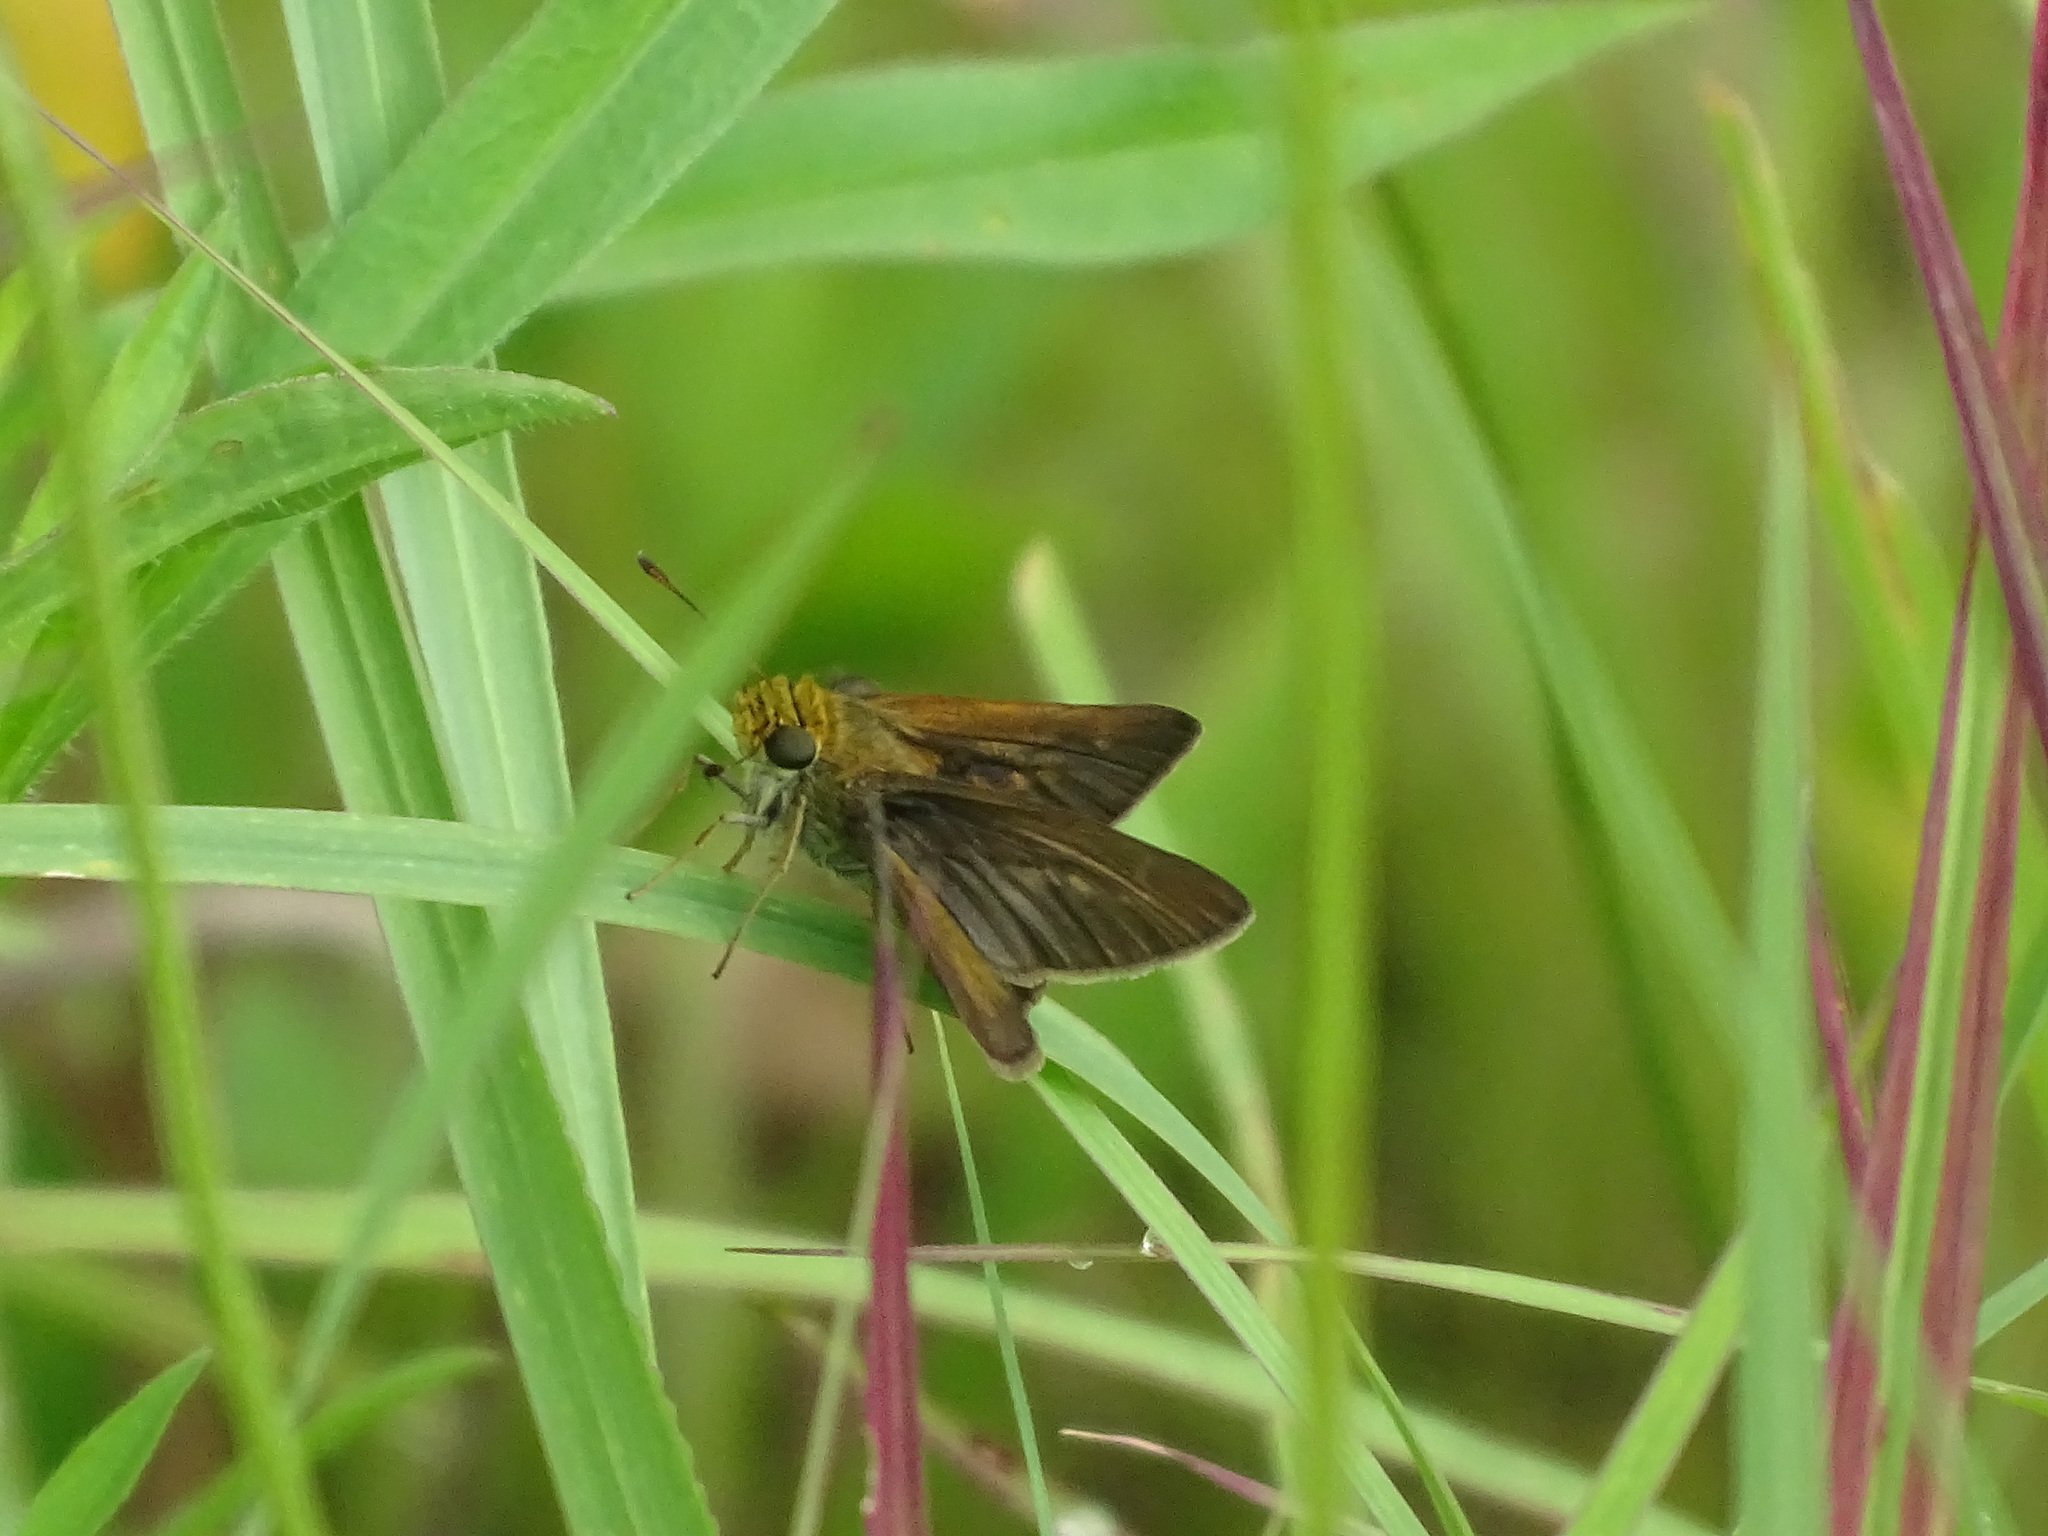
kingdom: Animalia
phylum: Arthropoda
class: Insecta
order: Lepidoptera
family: Hesperiidae
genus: Euphyes
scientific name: Euphyes vestris
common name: Dun skipper
